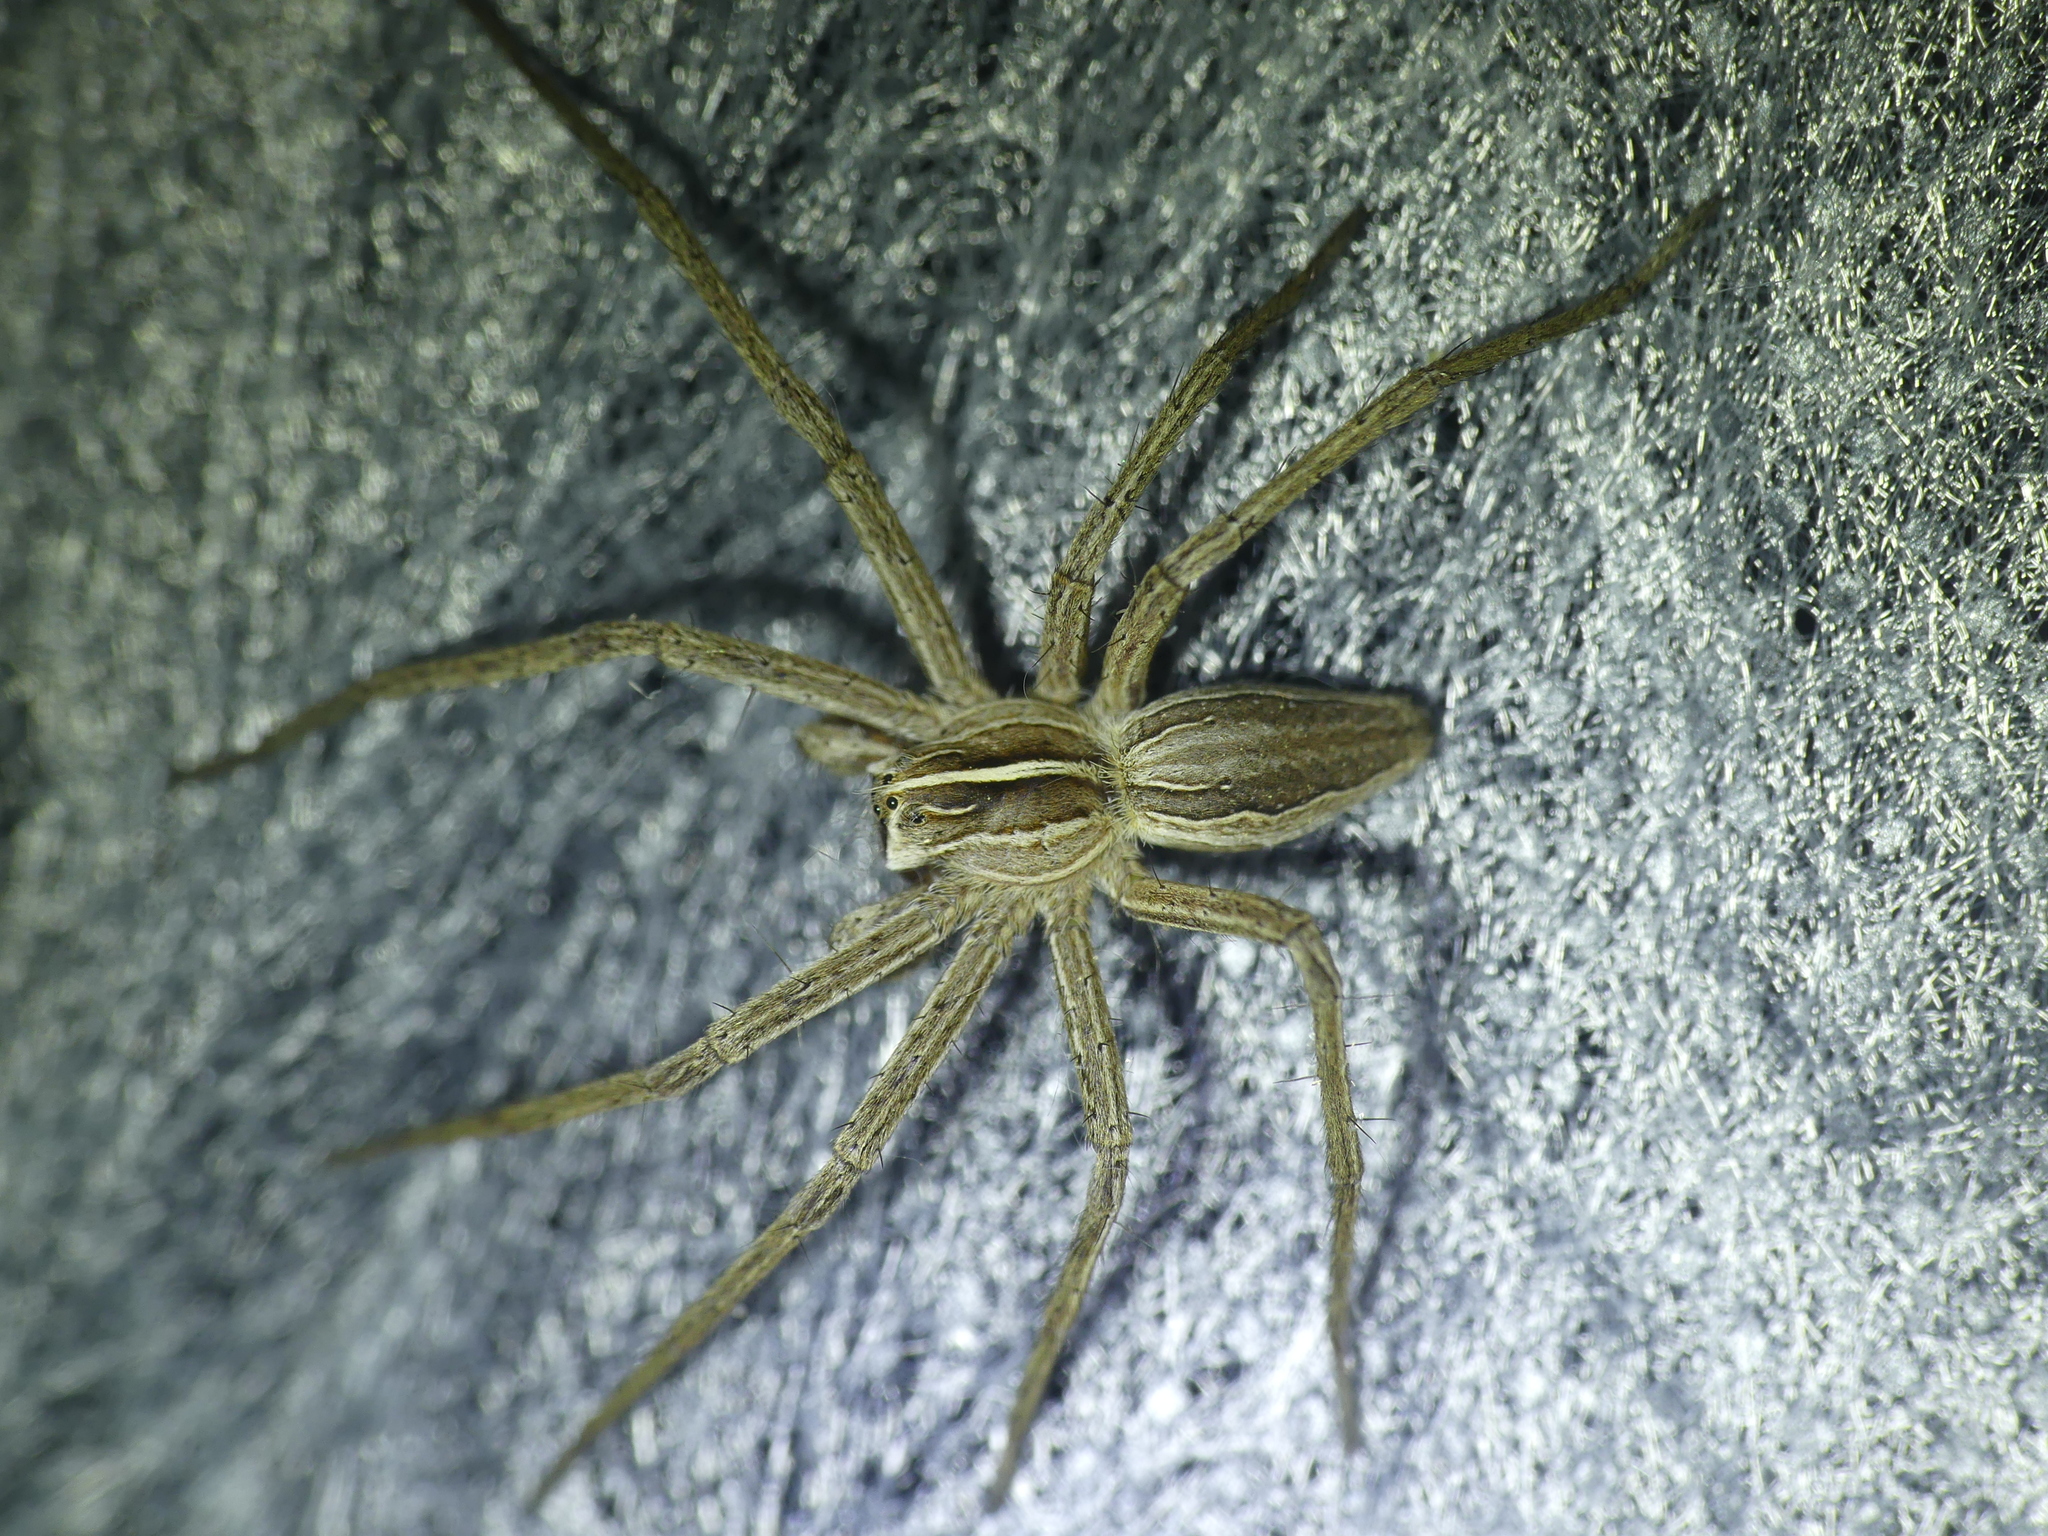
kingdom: Animalia
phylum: Arthropoda
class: Arachnida
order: Araneae
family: Pisauridae
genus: Pisaura
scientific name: Pisaura mirabilis
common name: Tent spider
